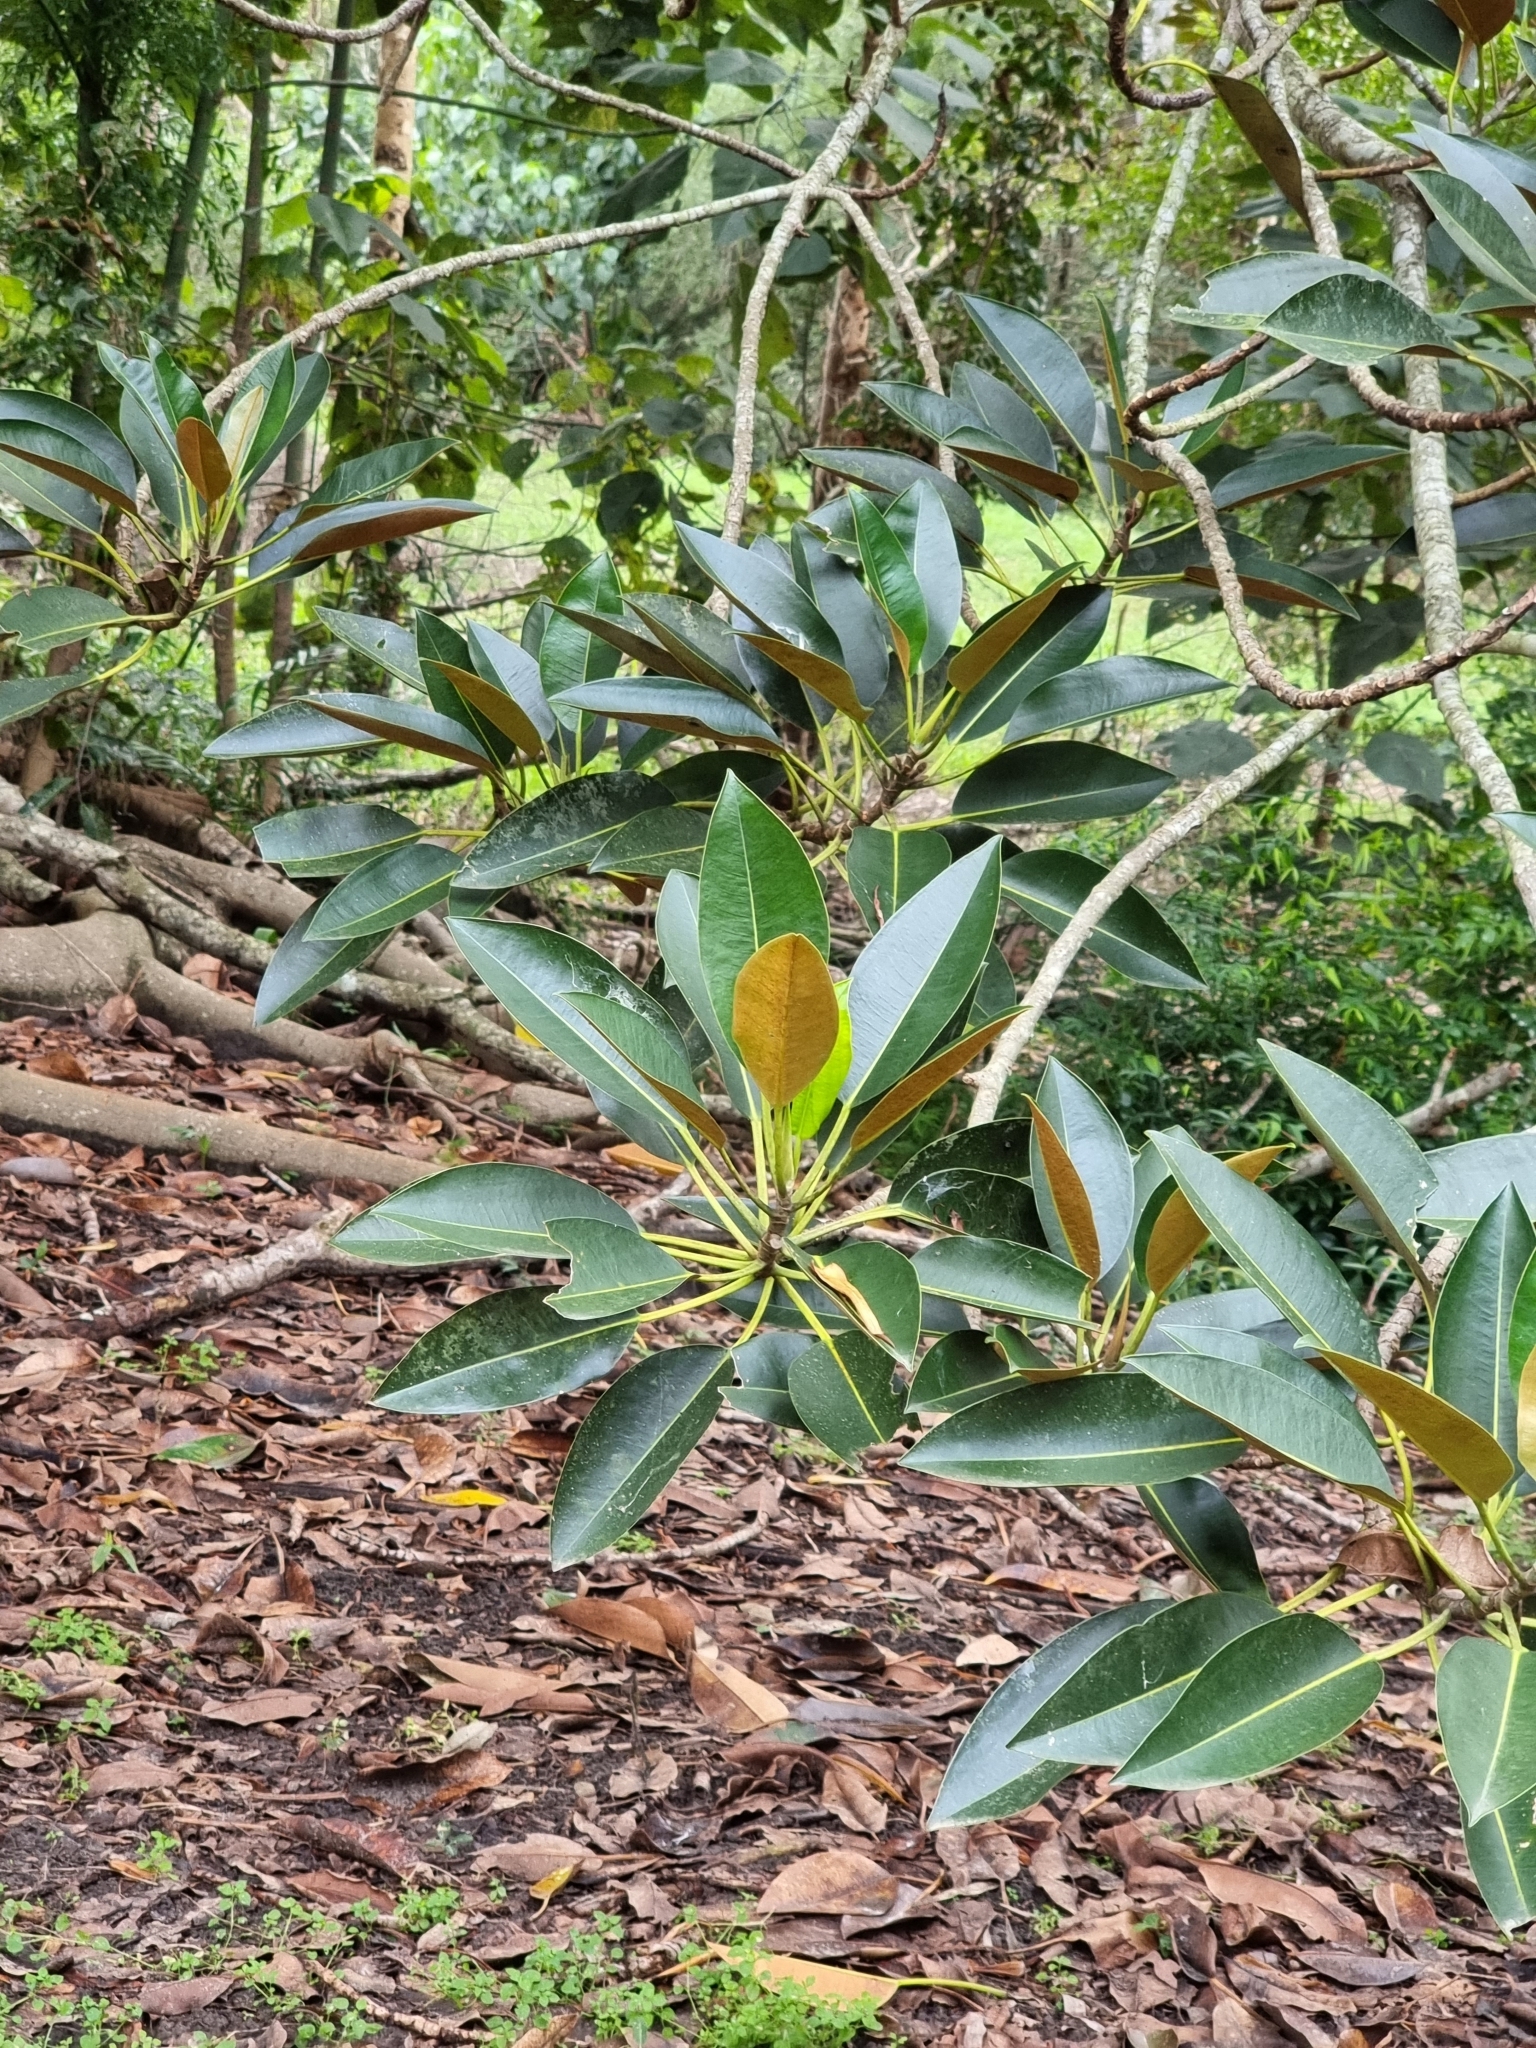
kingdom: Plantae
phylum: Tracheophyta
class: Magnoliopsida
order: Rosales
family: Moraceae
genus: Ficus
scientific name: Ficus macrophylla
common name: Moreton bay fig
